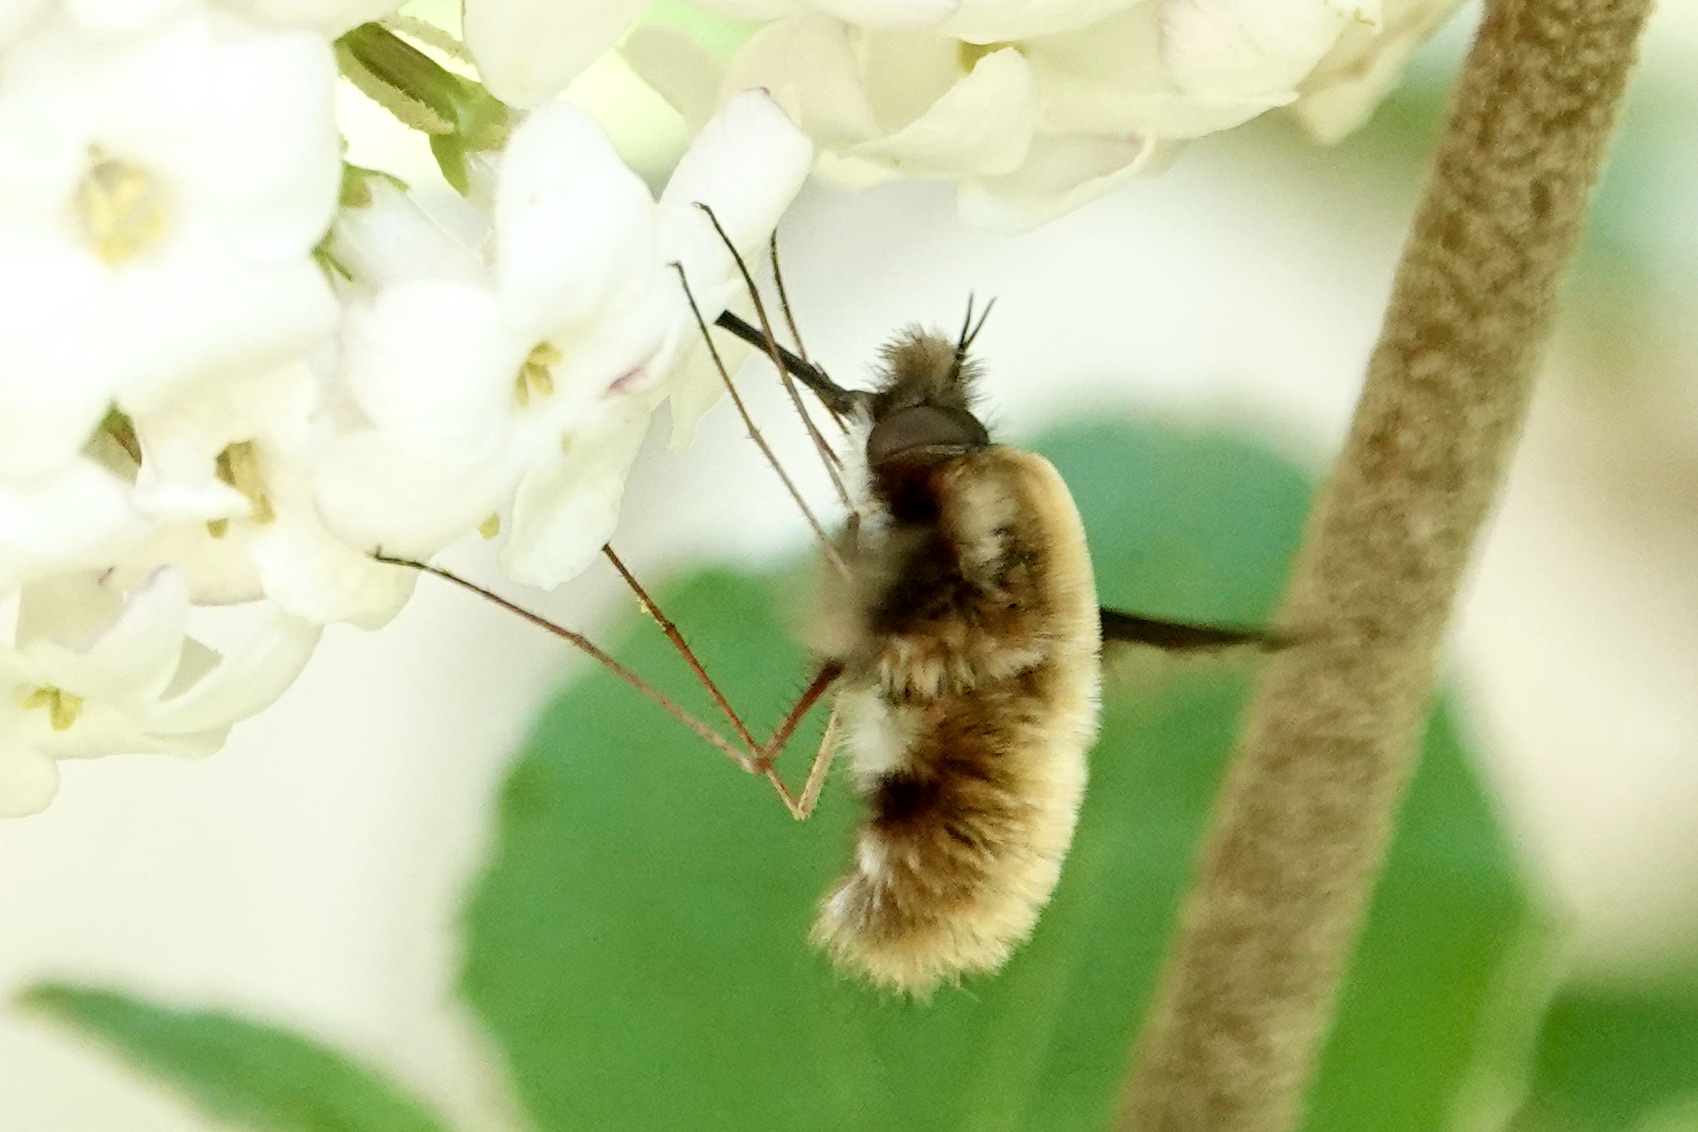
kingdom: Animalia
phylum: Arthropoda
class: Insecta
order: Diptera
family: Bombyliidae
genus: Bombylius
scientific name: Bombylius major
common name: Bee fly
